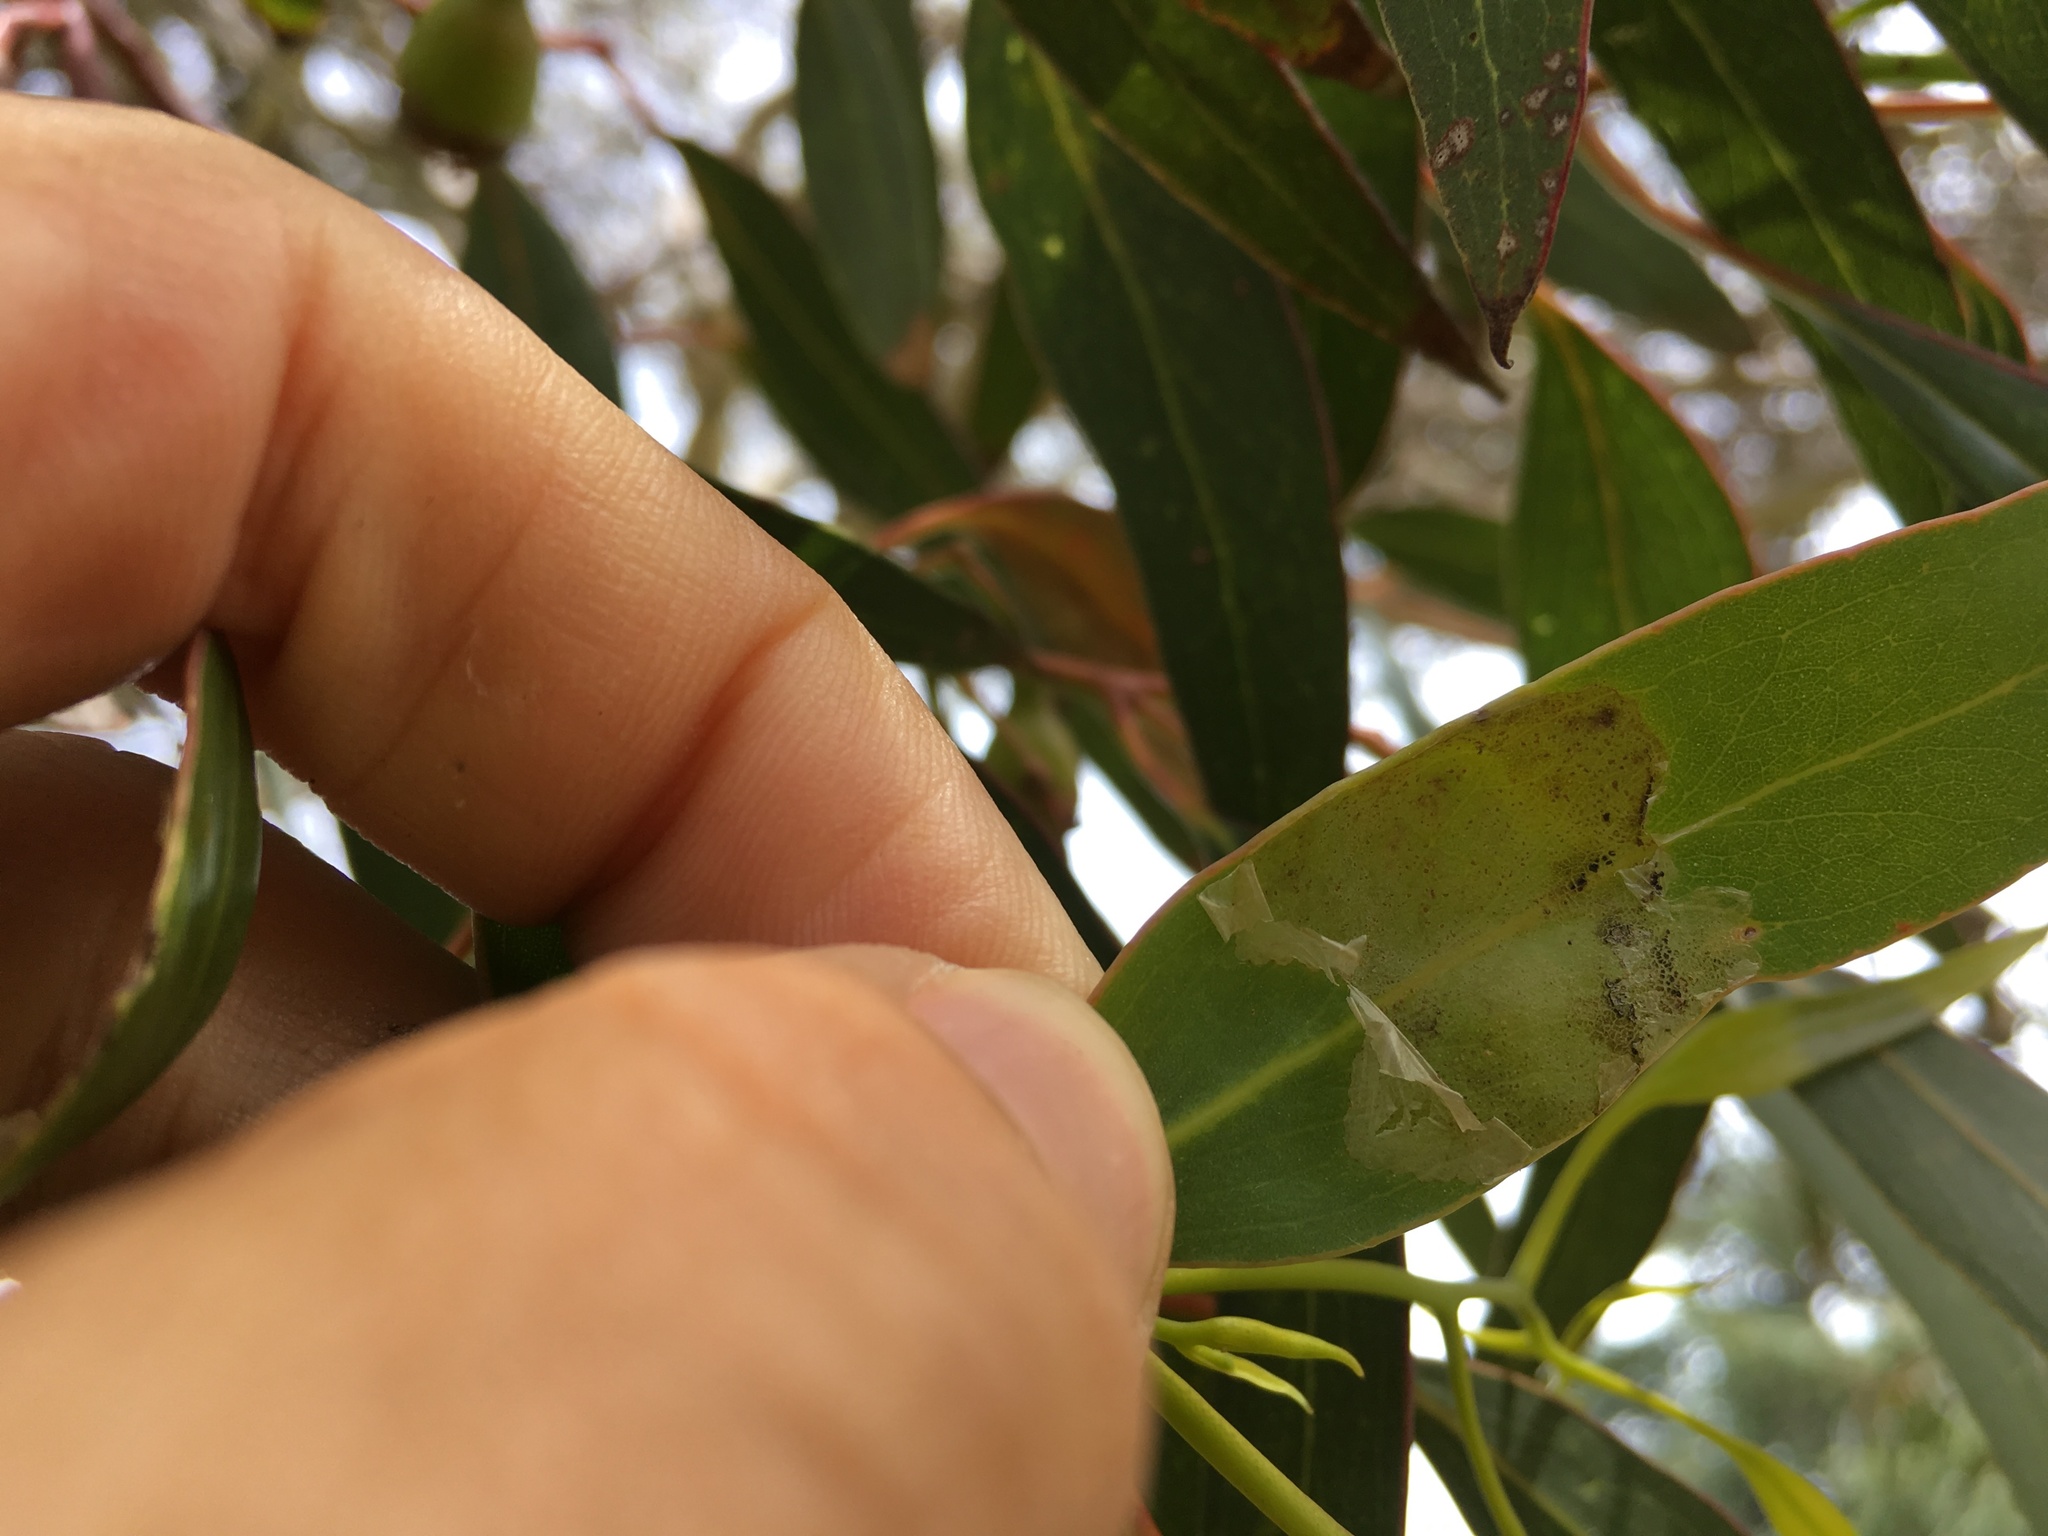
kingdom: Animalia
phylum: Arthropoda
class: Insecta
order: Hymenoptera
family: Pergidae
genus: Phylacteophaga
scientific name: Phylacteophaga froggatti
